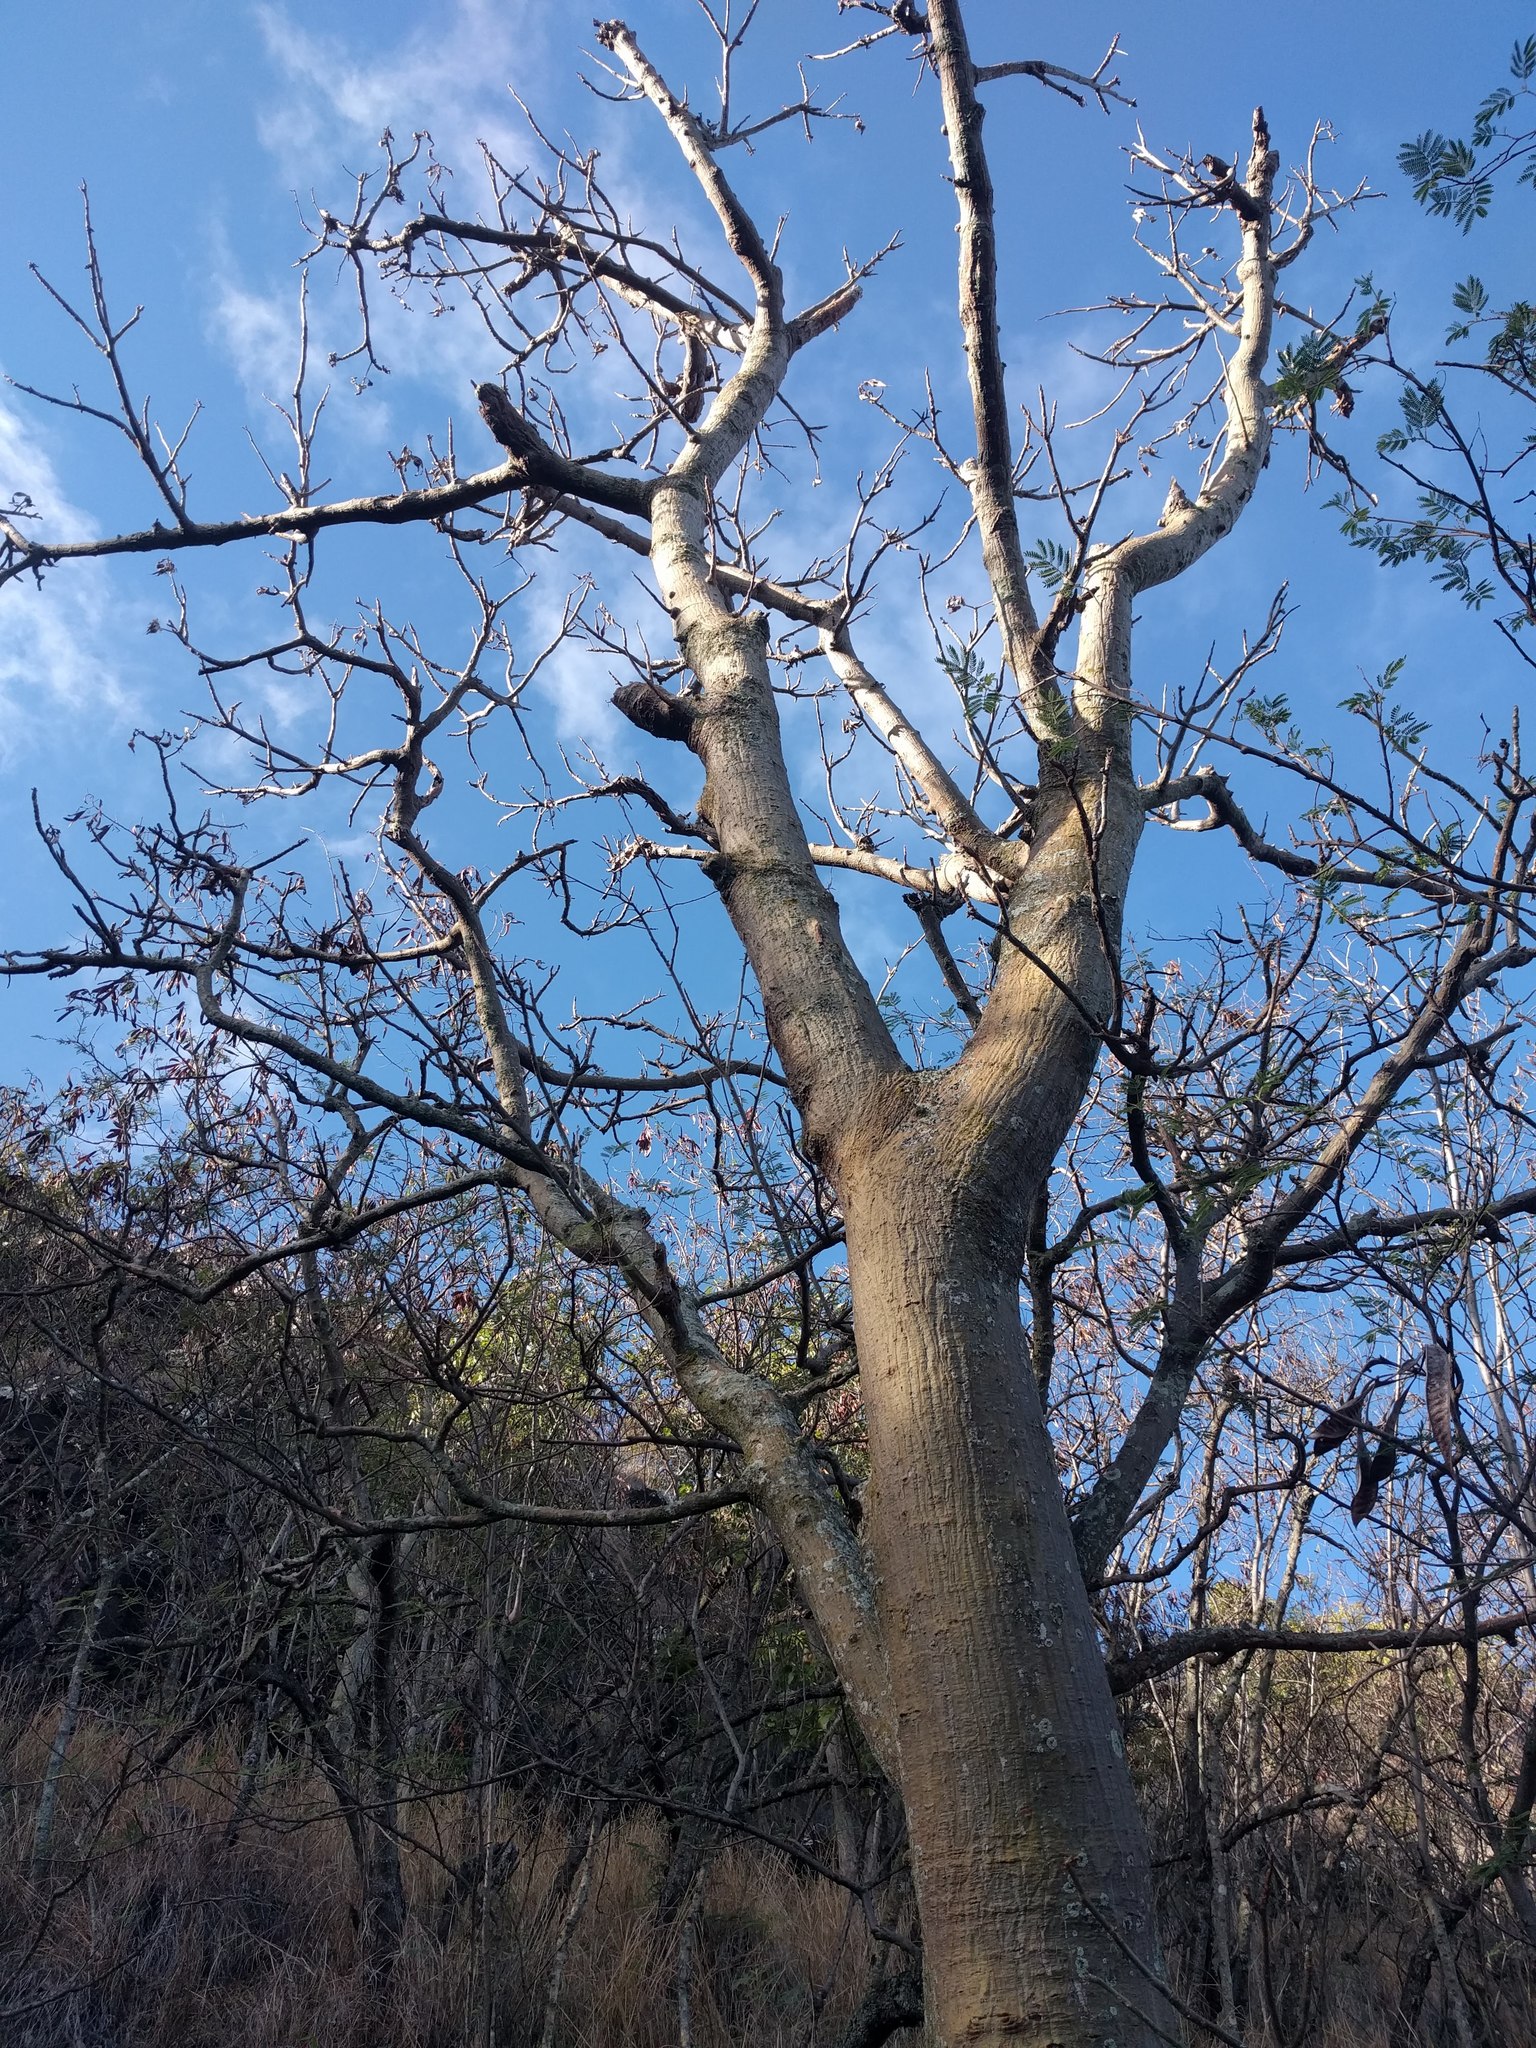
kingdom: Plantae
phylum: Tracheophyta
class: Magnoliopsida
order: Fabales
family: Fabaceae
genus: Erythrina
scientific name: Erythrina sandwicensis
